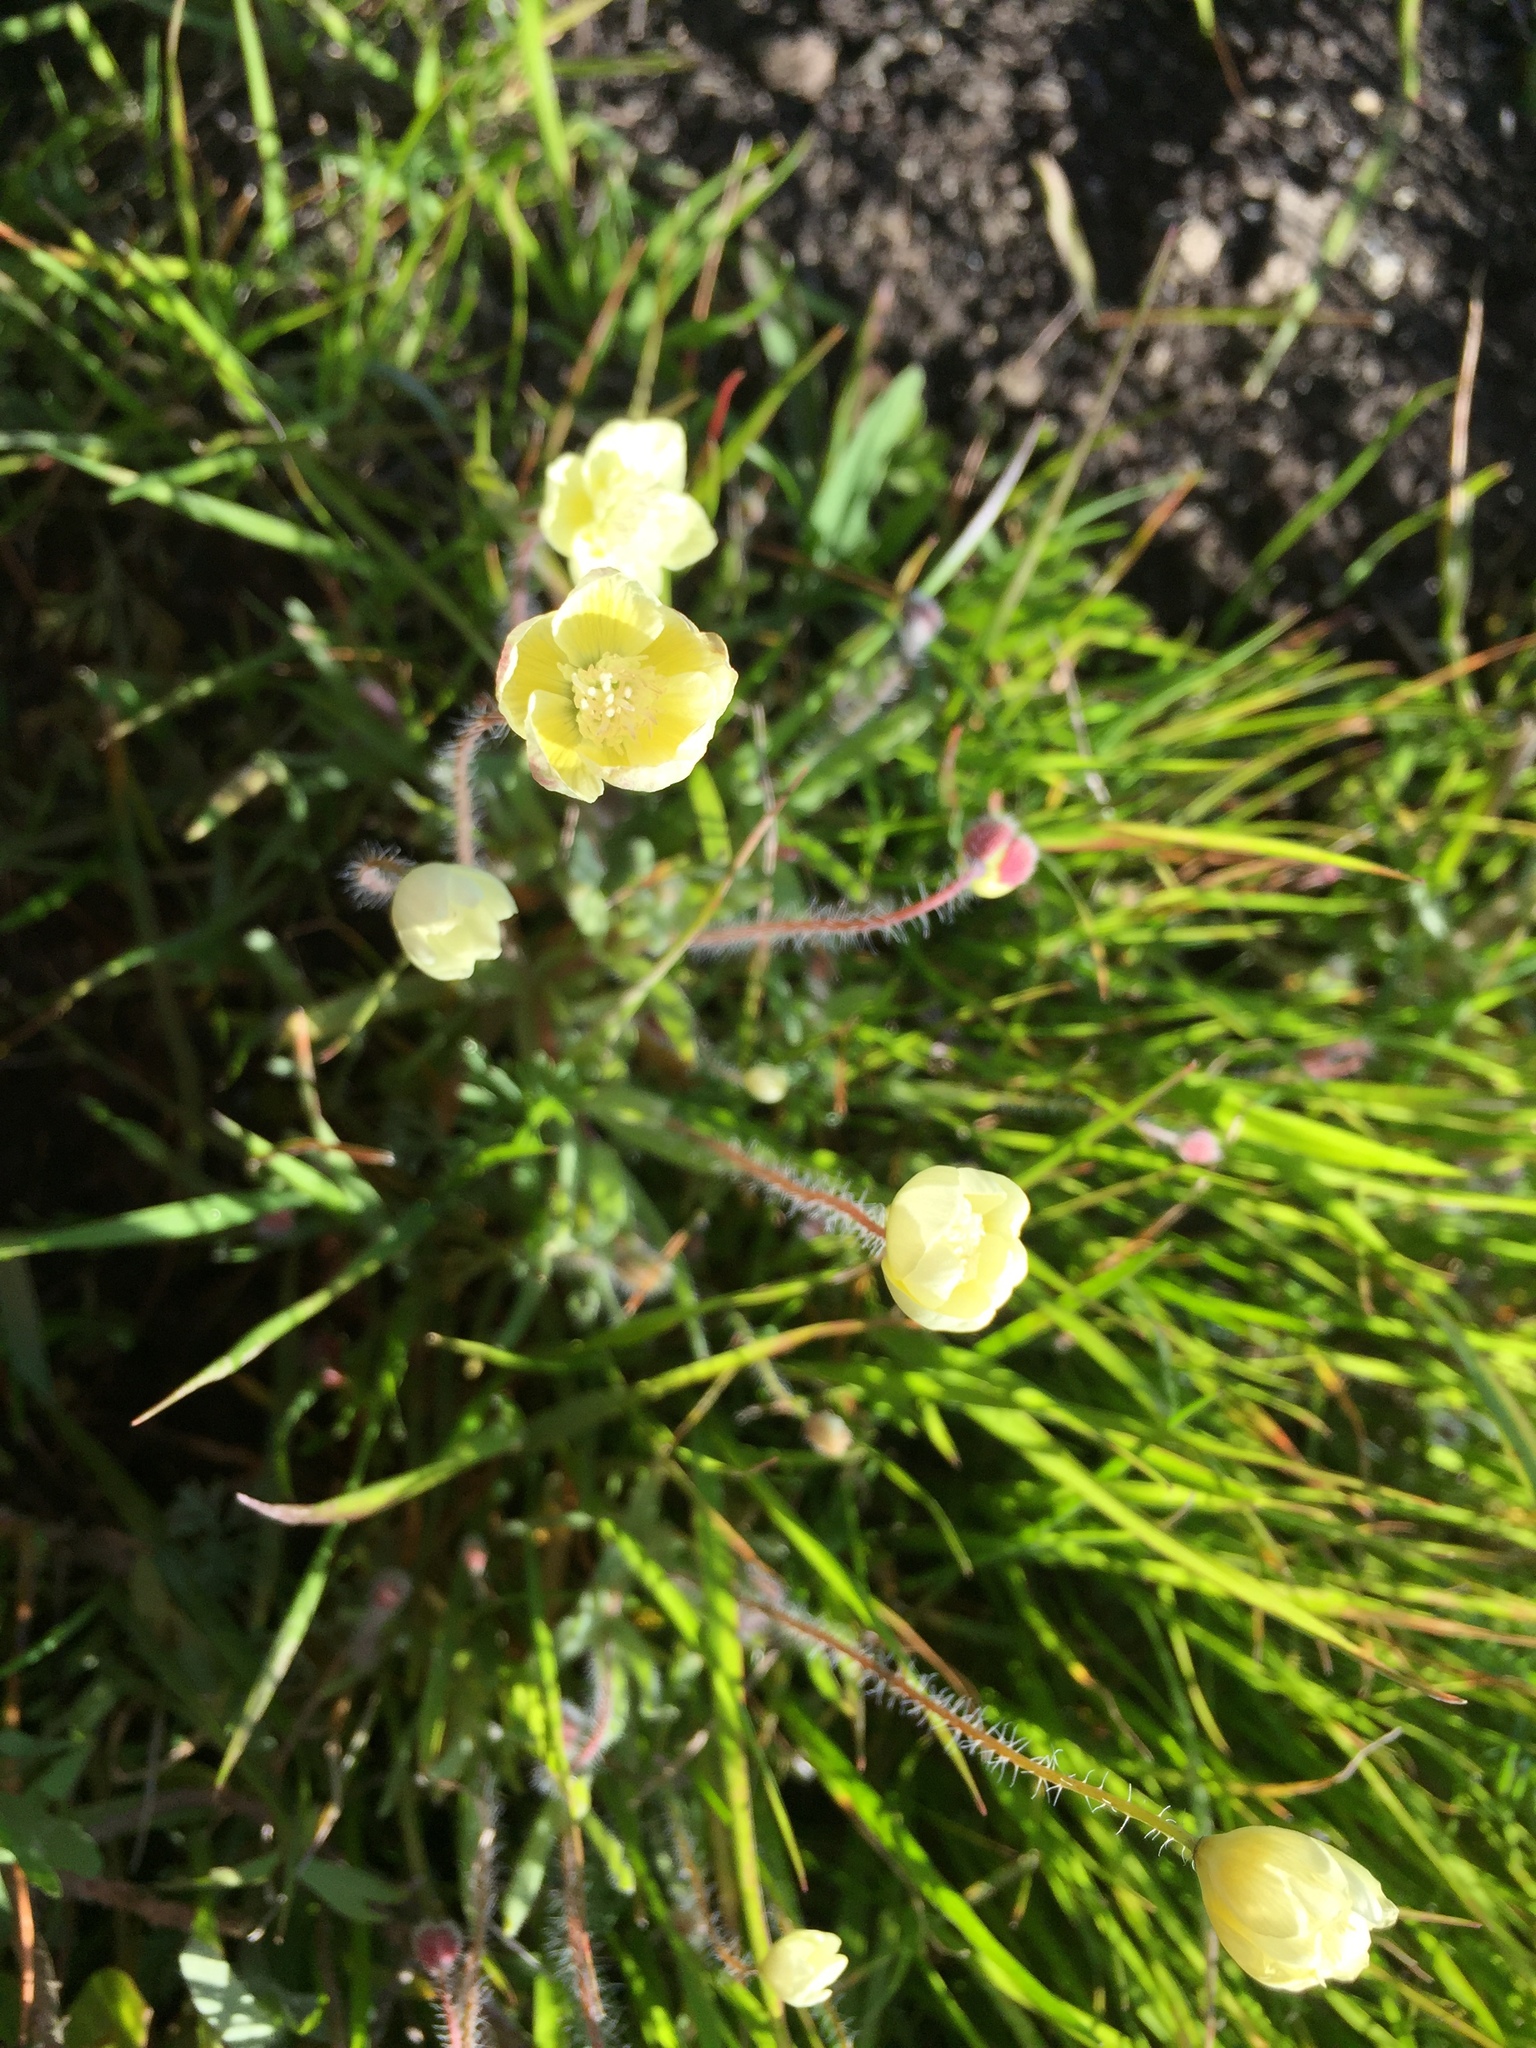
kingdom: Plantae
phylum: Tracheophyta
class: Magnoliopsida
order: Ranunculales
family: Papaveraceae
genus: Platystemon
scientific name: Platystemon californicus
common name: Cream-cups
